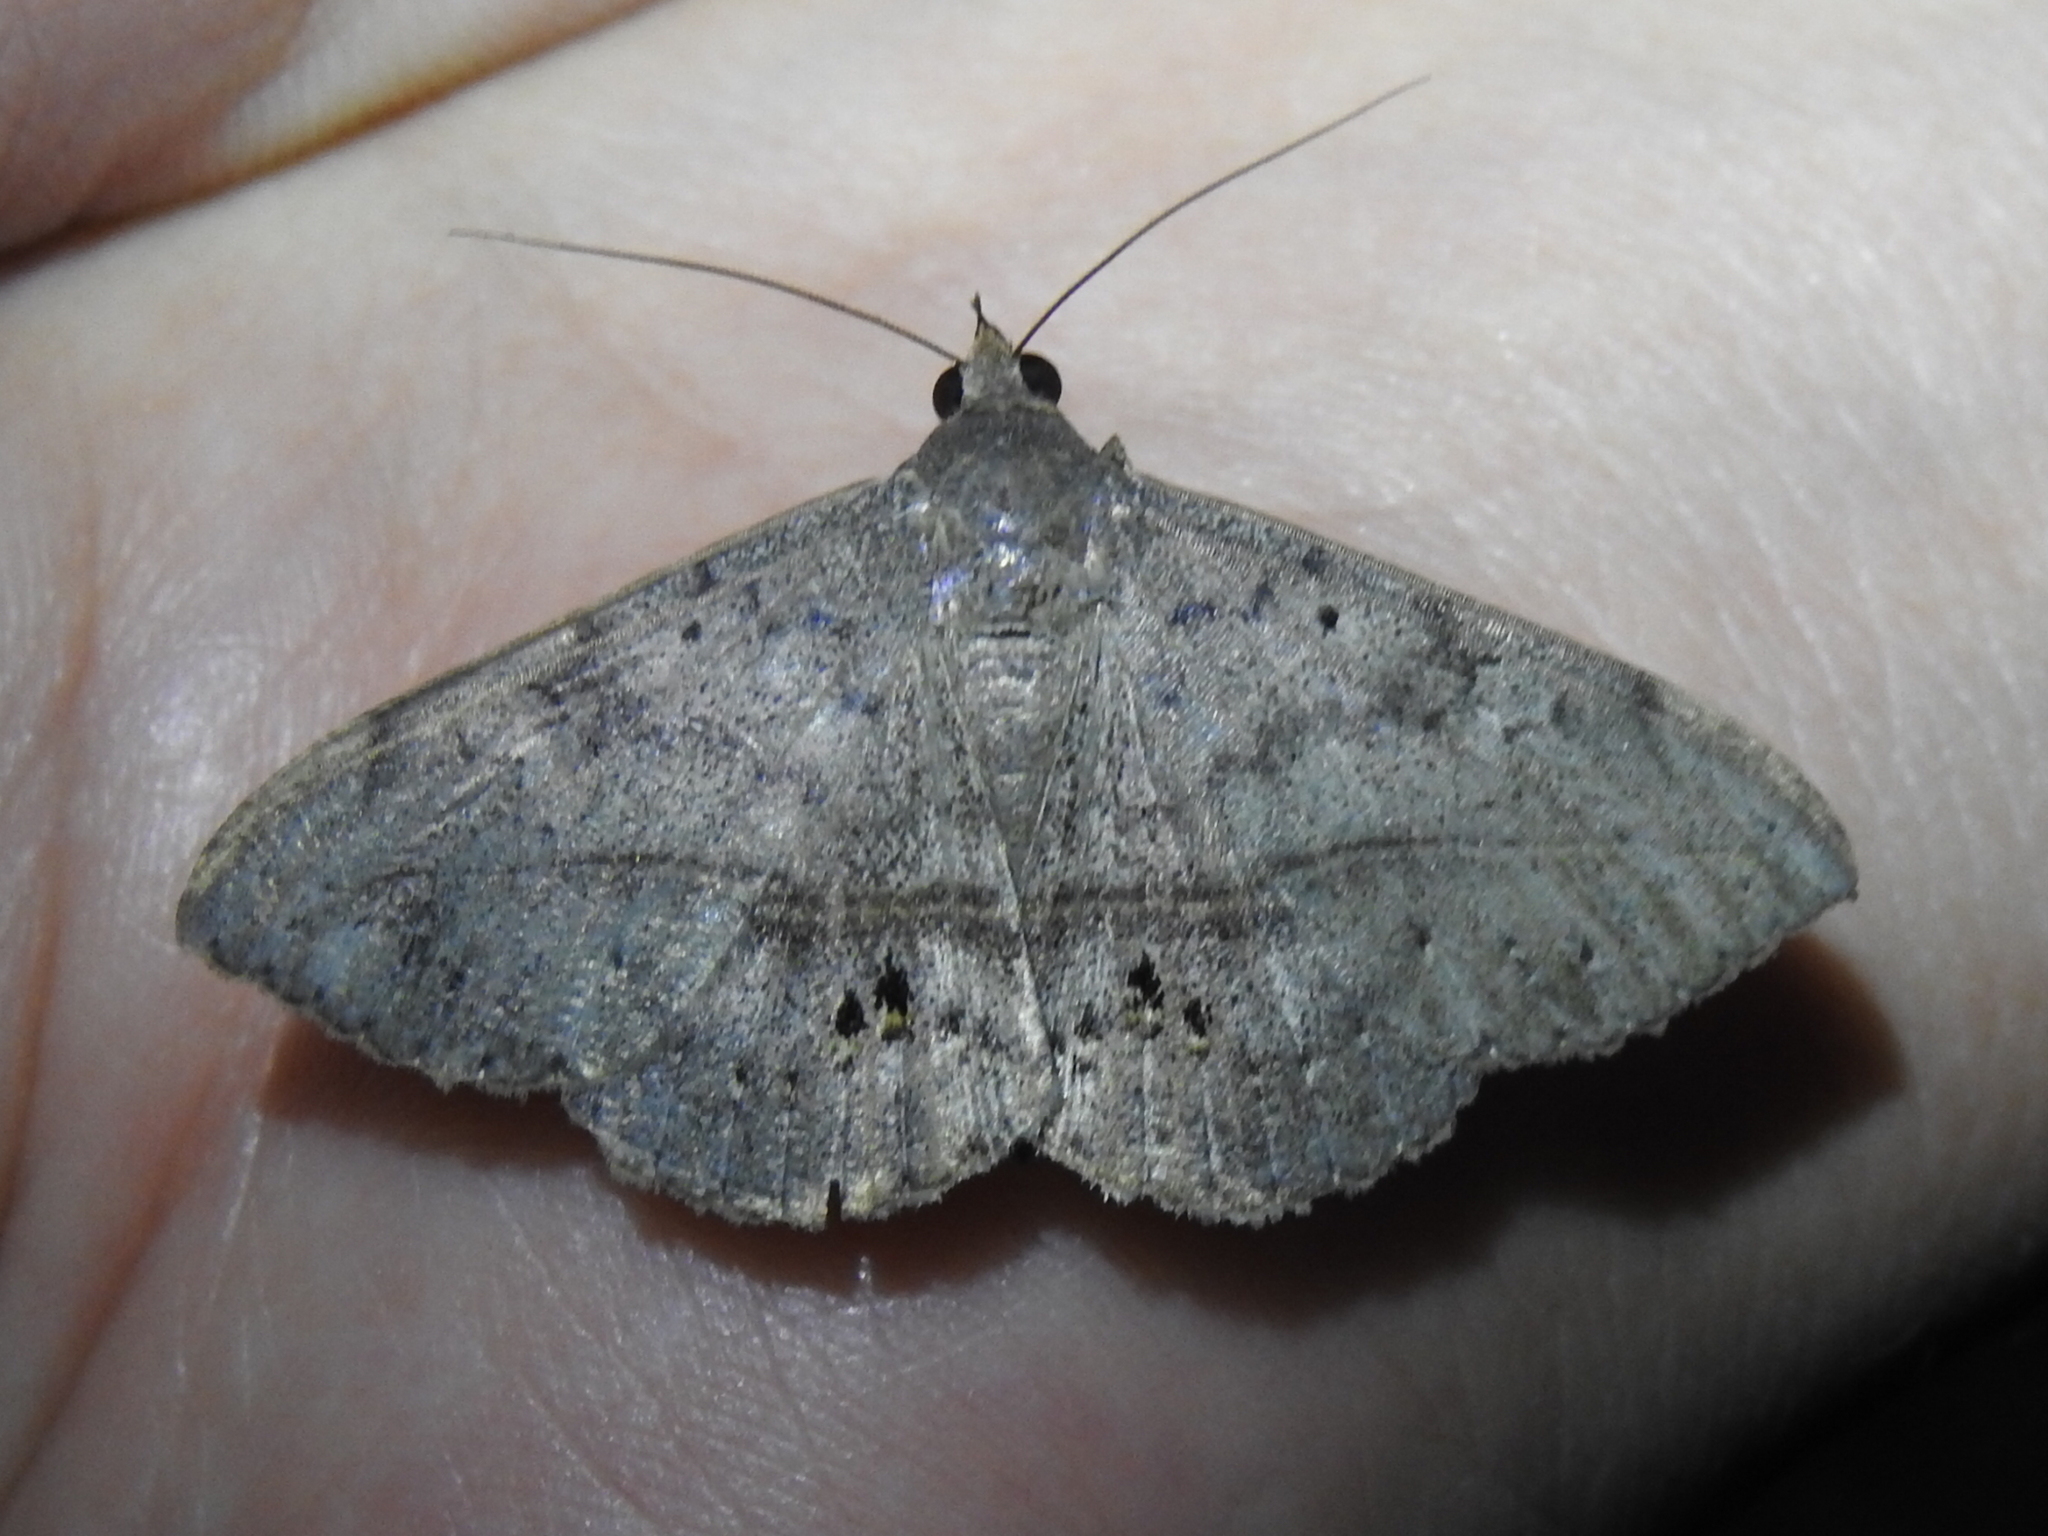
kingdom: Animalia
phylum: Arthropoda
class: Insecta
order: Lepidoptera
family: Erebidae
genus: Anticarsia
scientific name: Anticarsia gemmatalis
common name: Cutworm moth
